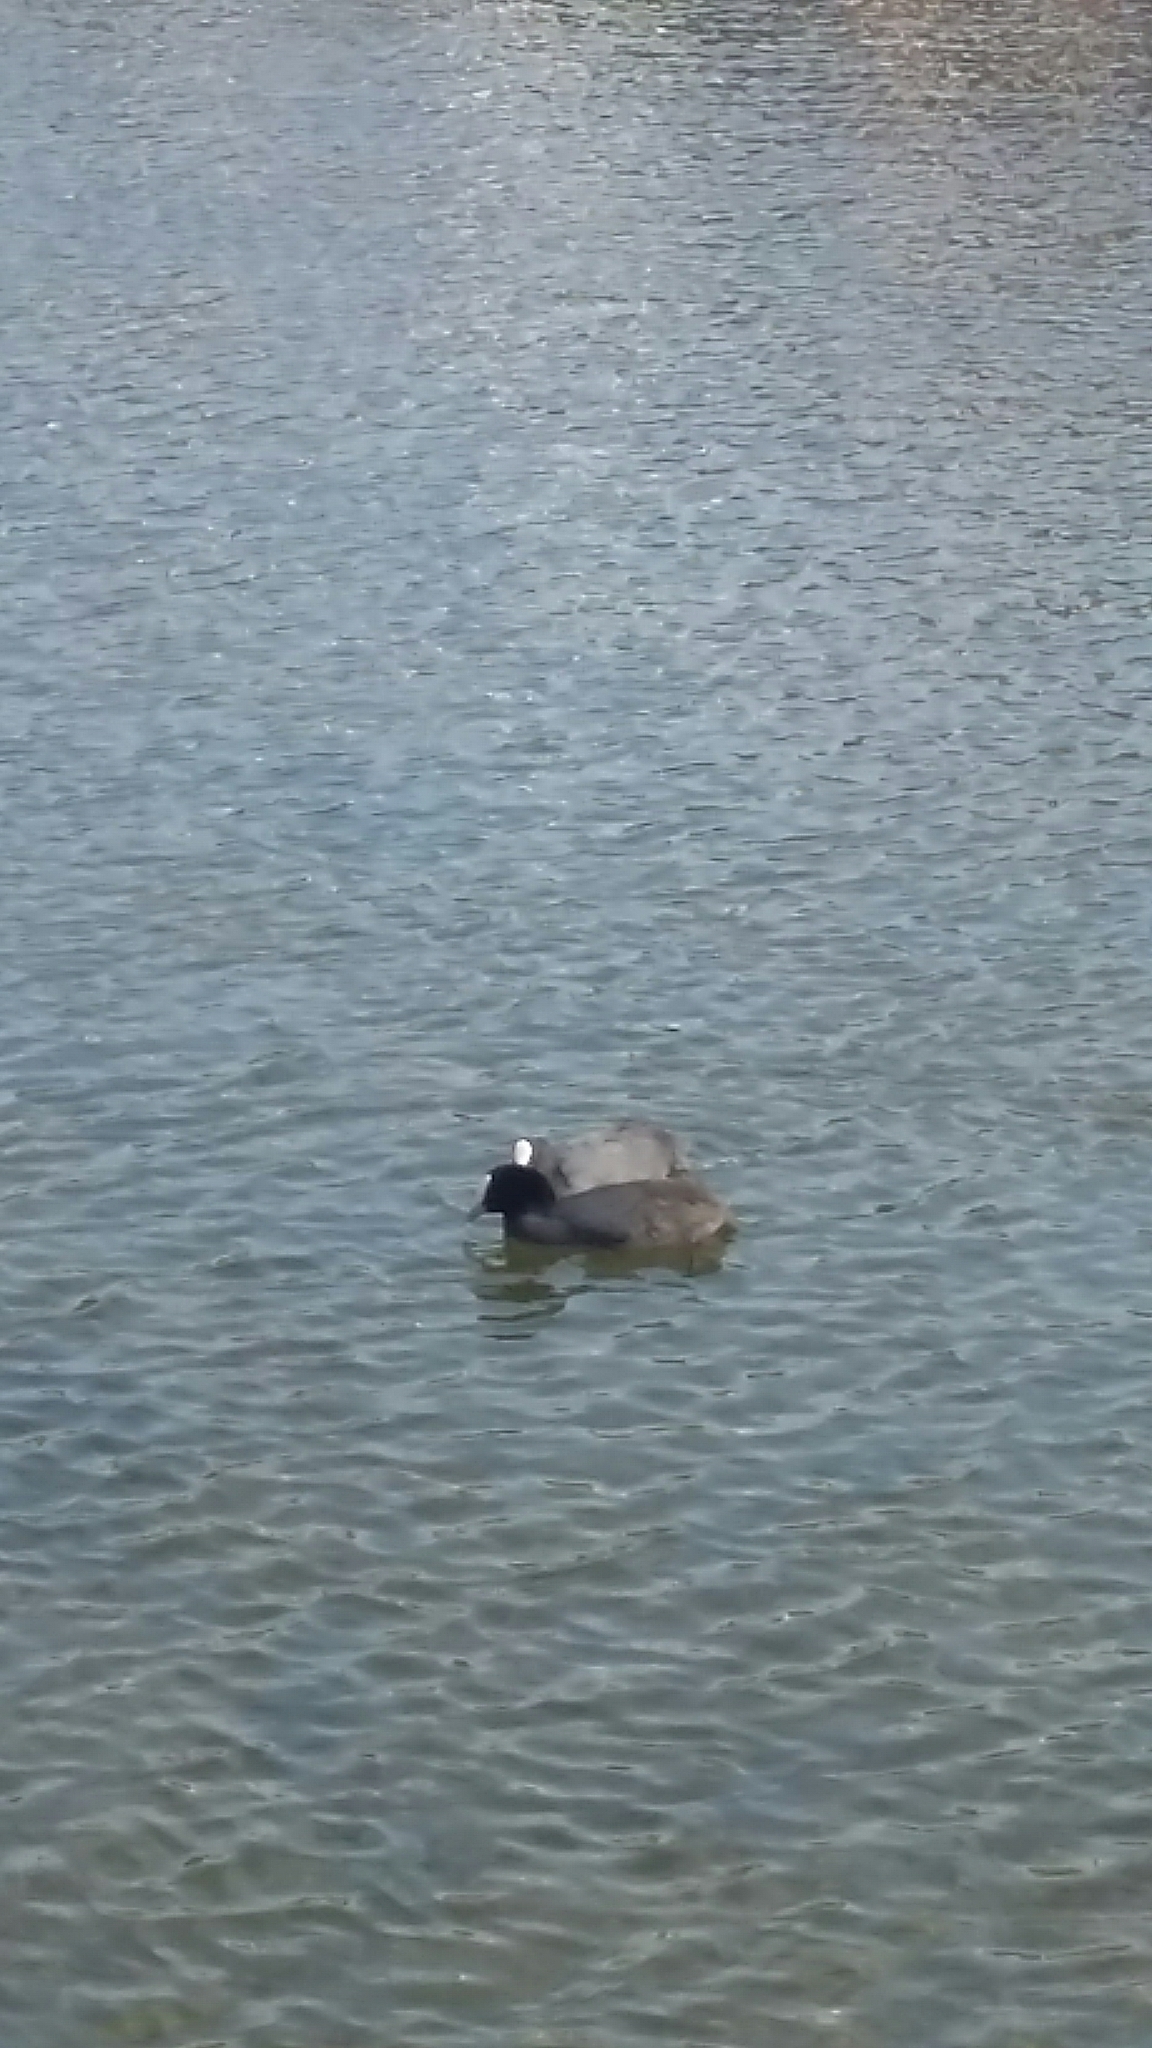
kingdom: Animalia
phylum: Chordata
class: Aves
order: Gruiformes
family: Rallidae
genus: Fulica
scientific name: Fulica atra
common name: Eurasian coot
